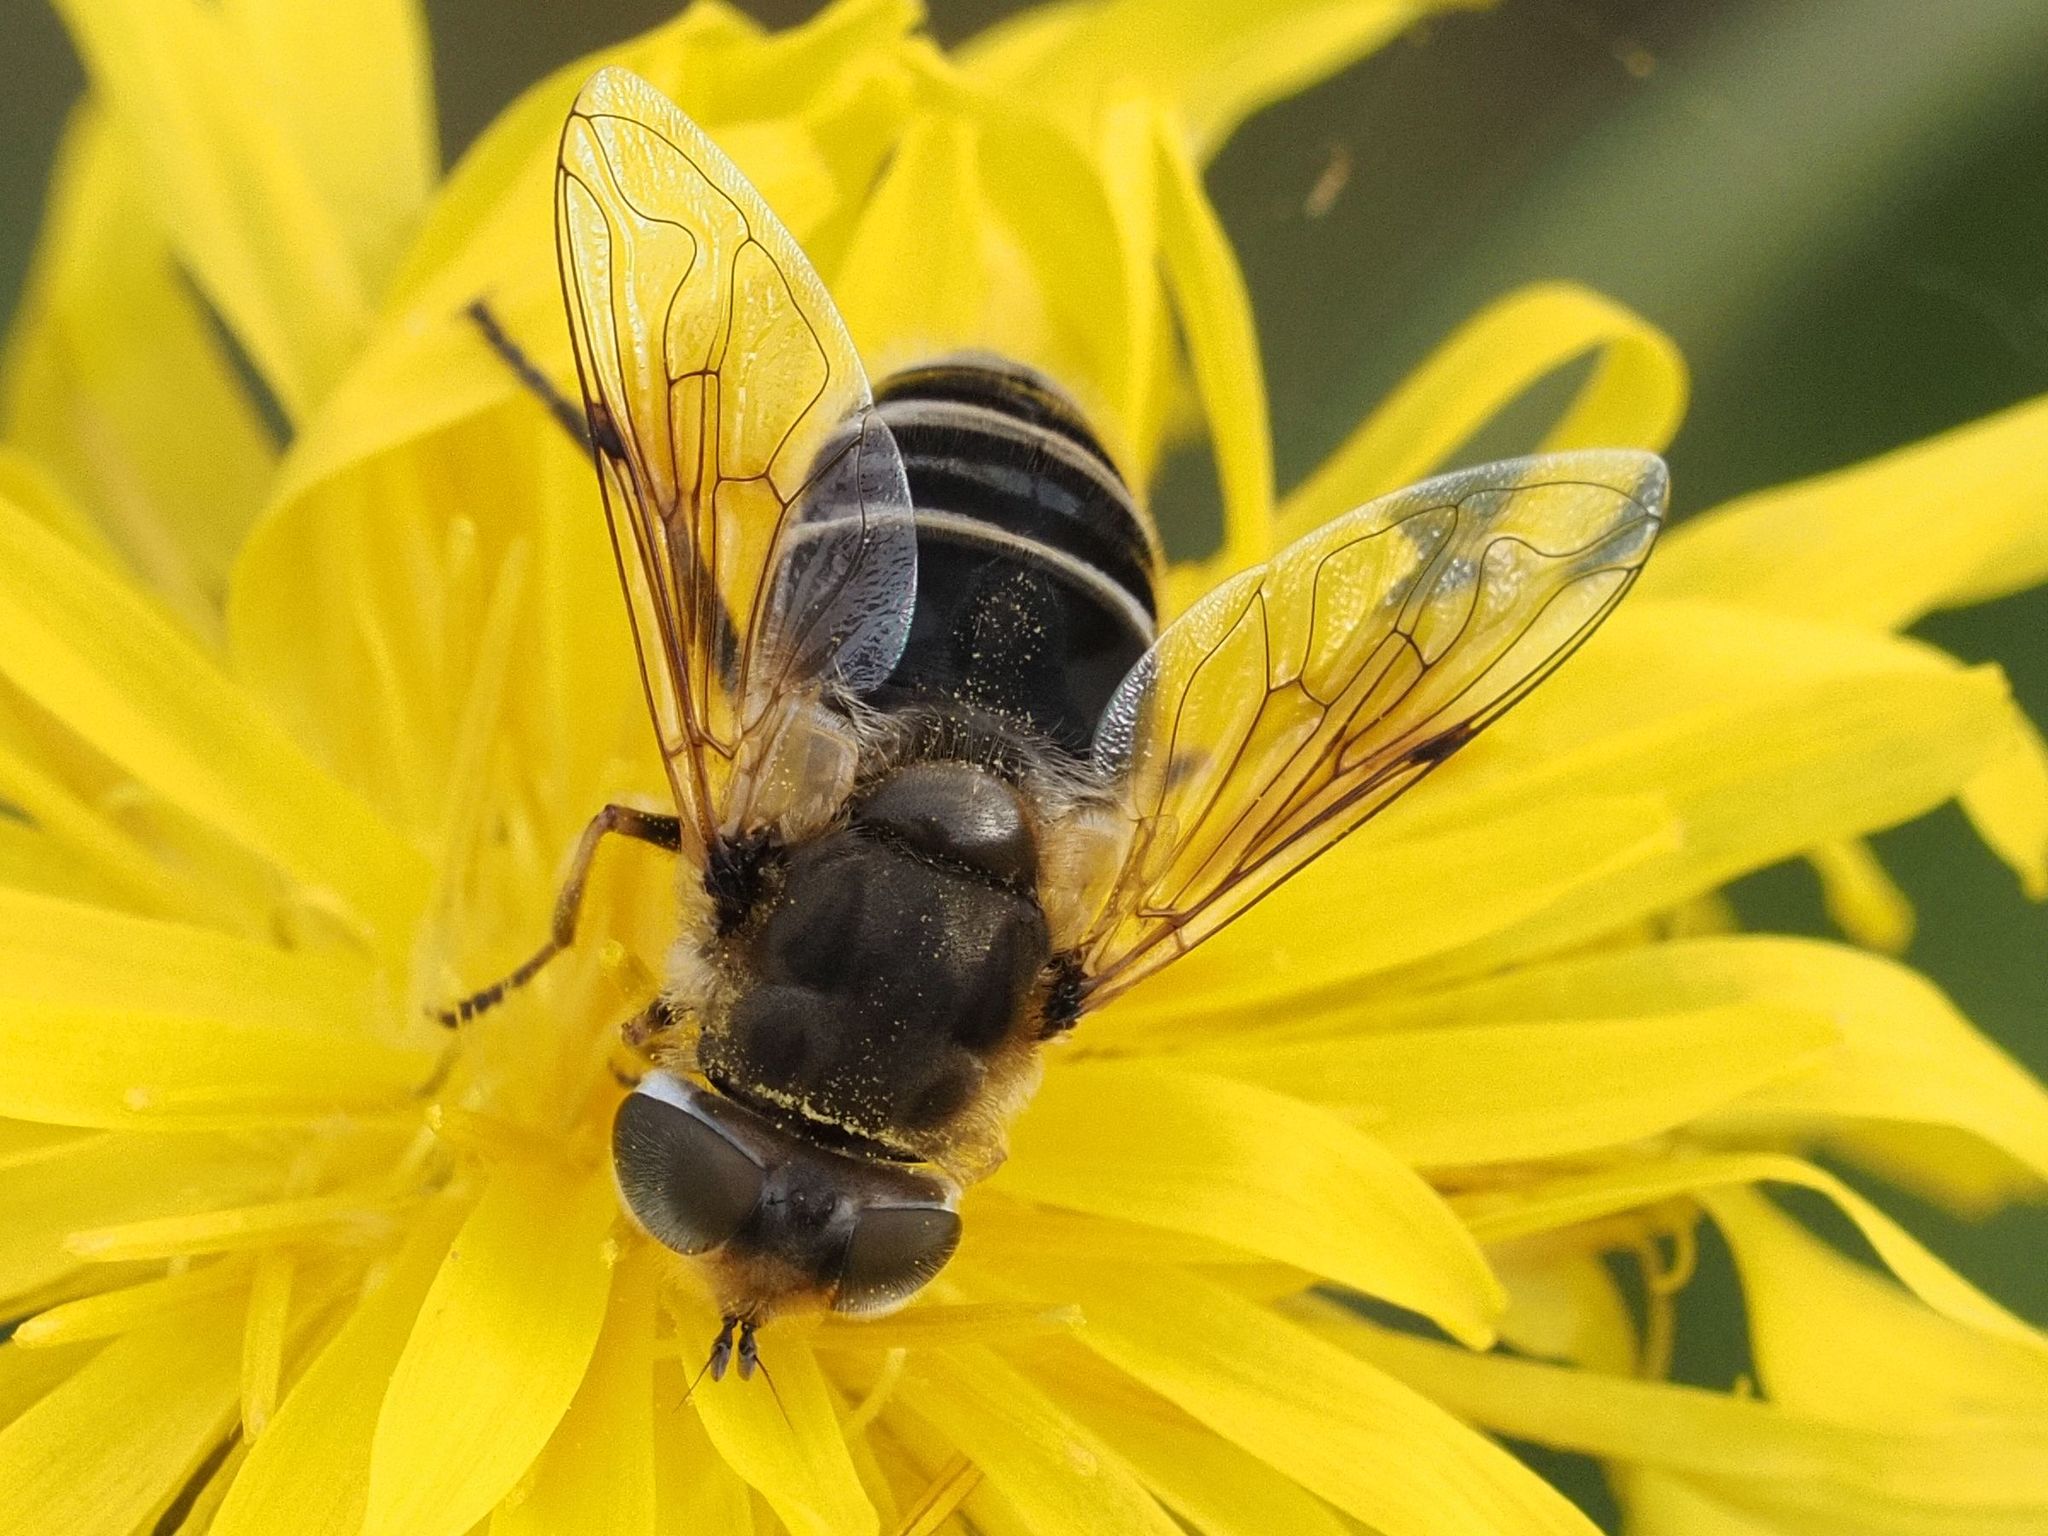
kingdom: Animalia
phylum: Arthropoda
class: Insecta
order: Diptera
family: Syrphidae
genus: Eristalis
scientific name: Eristalis arbustorum
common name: Hover fly
